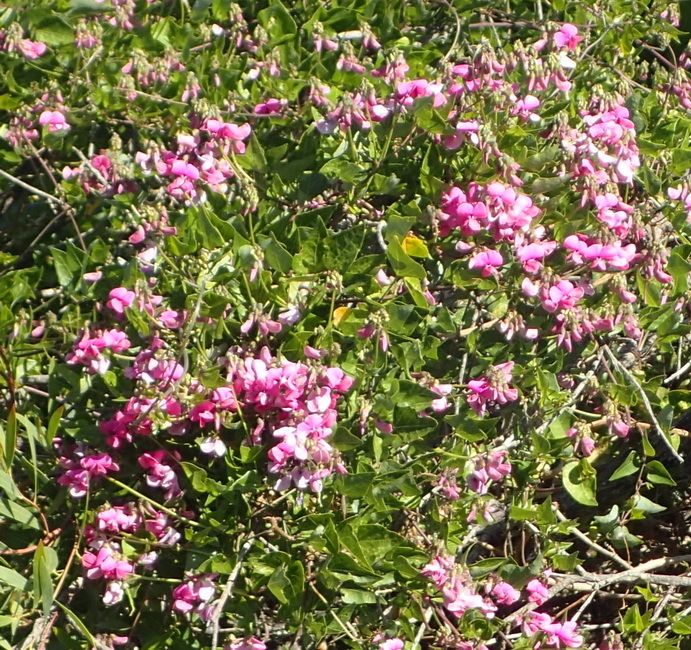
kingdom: Plantae
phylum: Tracheophyta
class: Magnoliopsida
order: Fabales
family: Fabaceae
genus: Dipogon
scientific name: Dipogon lignosus
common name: Okie bean
